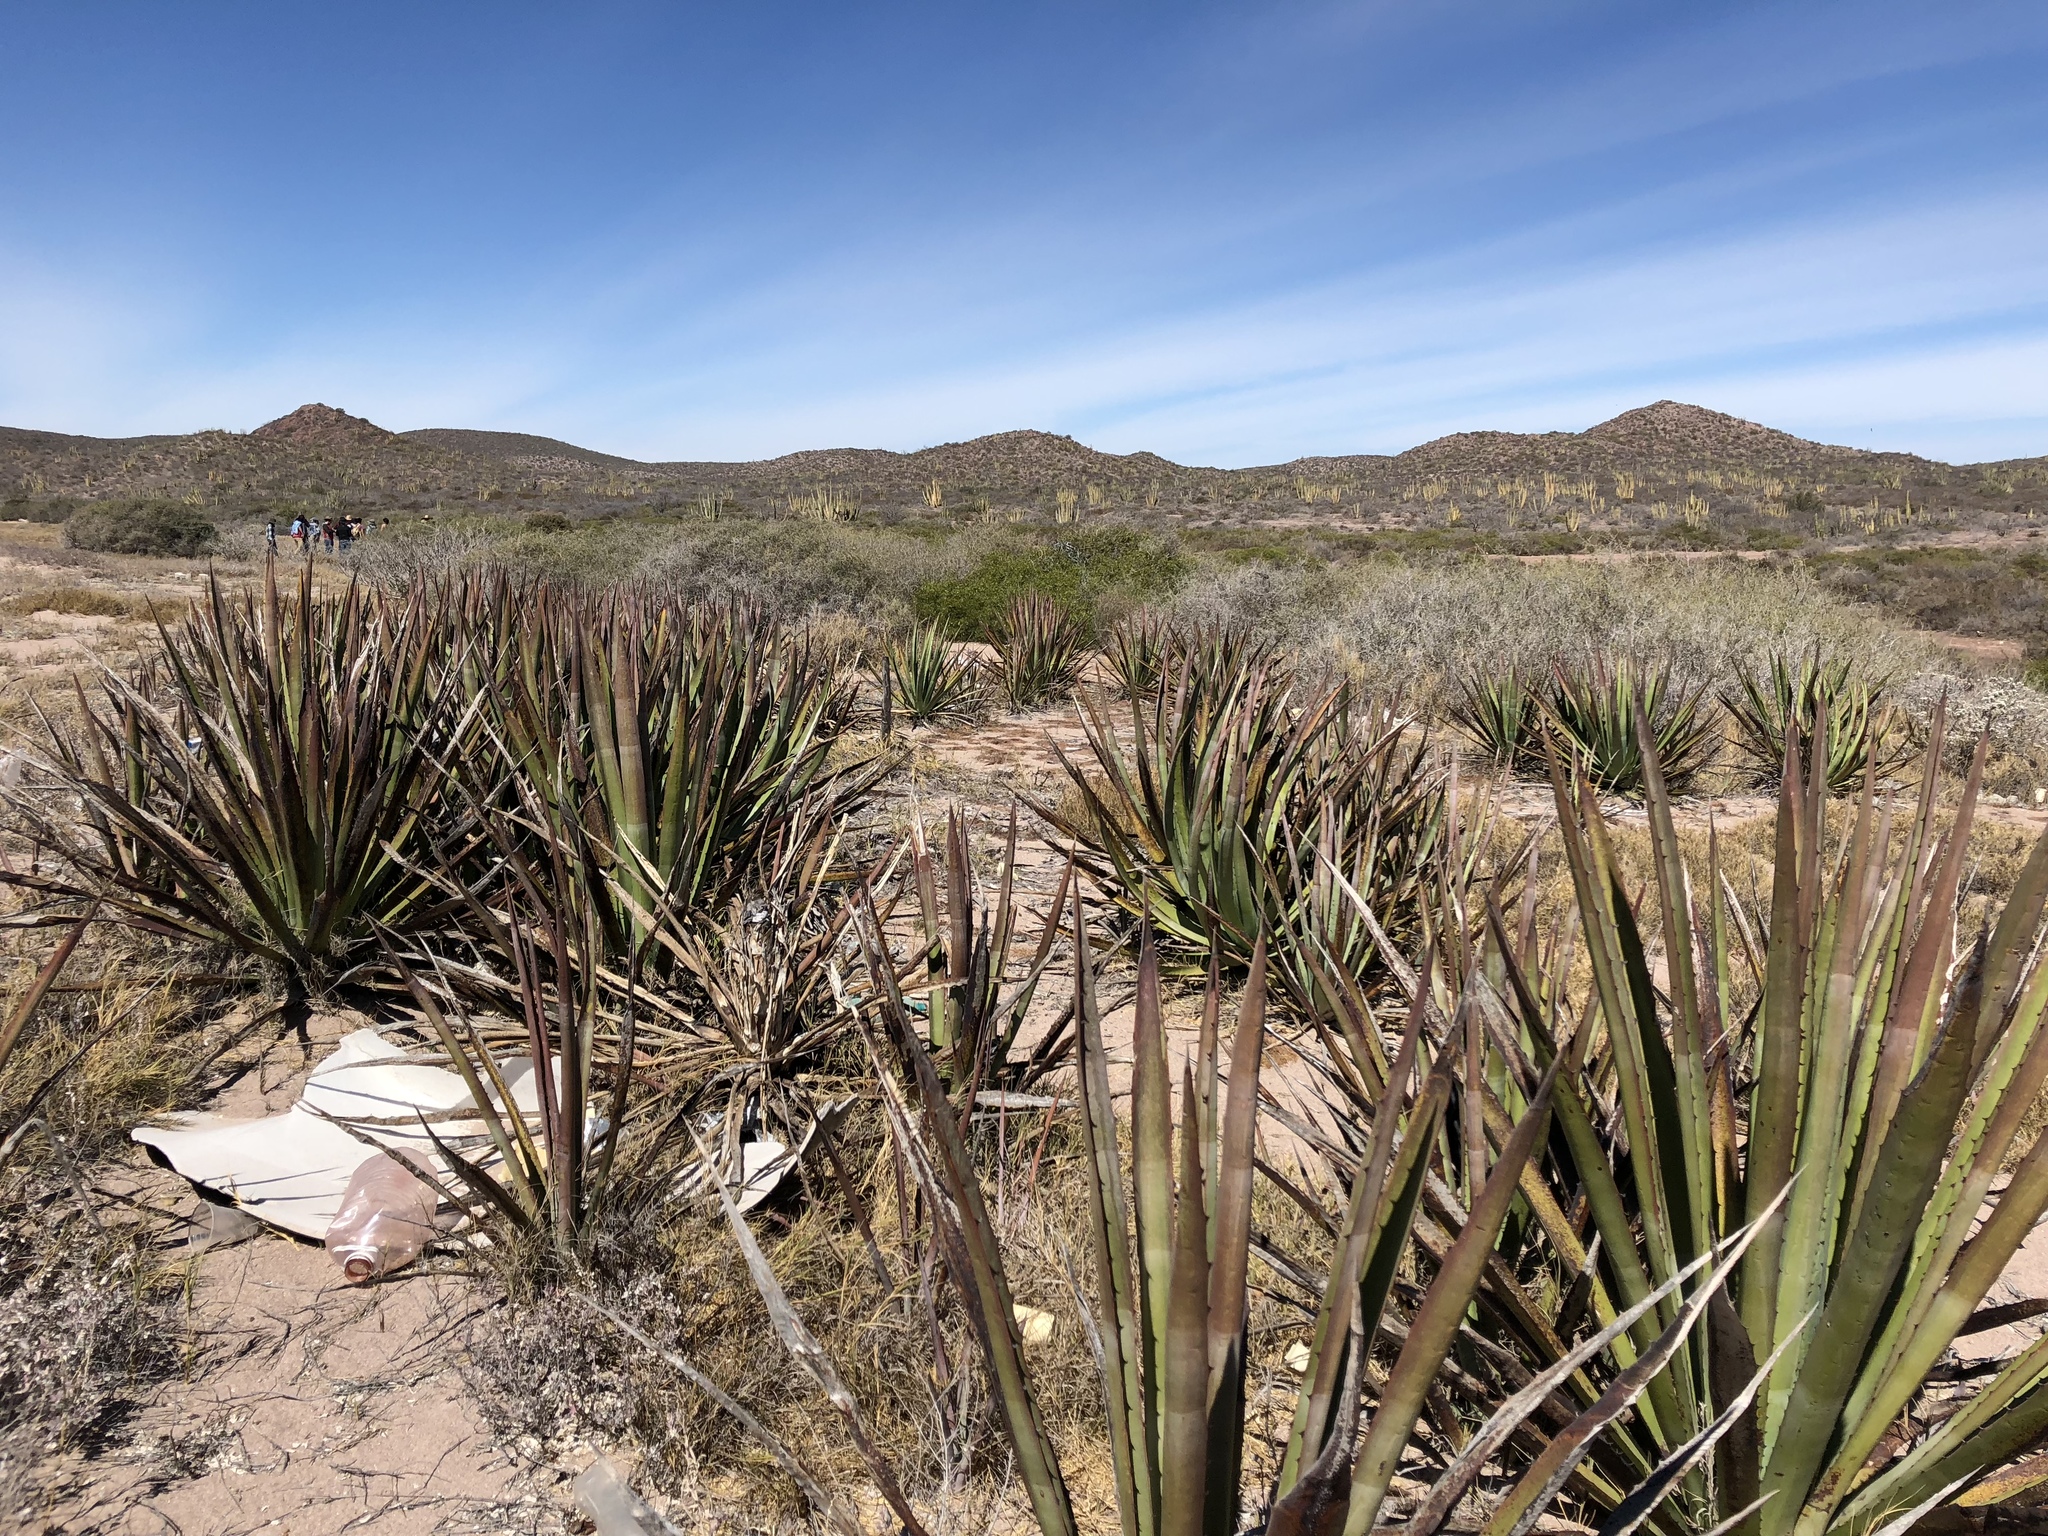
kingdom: Plantae
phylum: Tracheophyta
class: Liliopsida
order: Asparagales
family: Asparagaceae
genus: Agave
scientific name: Agave angustifolia
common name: Mescal agave
